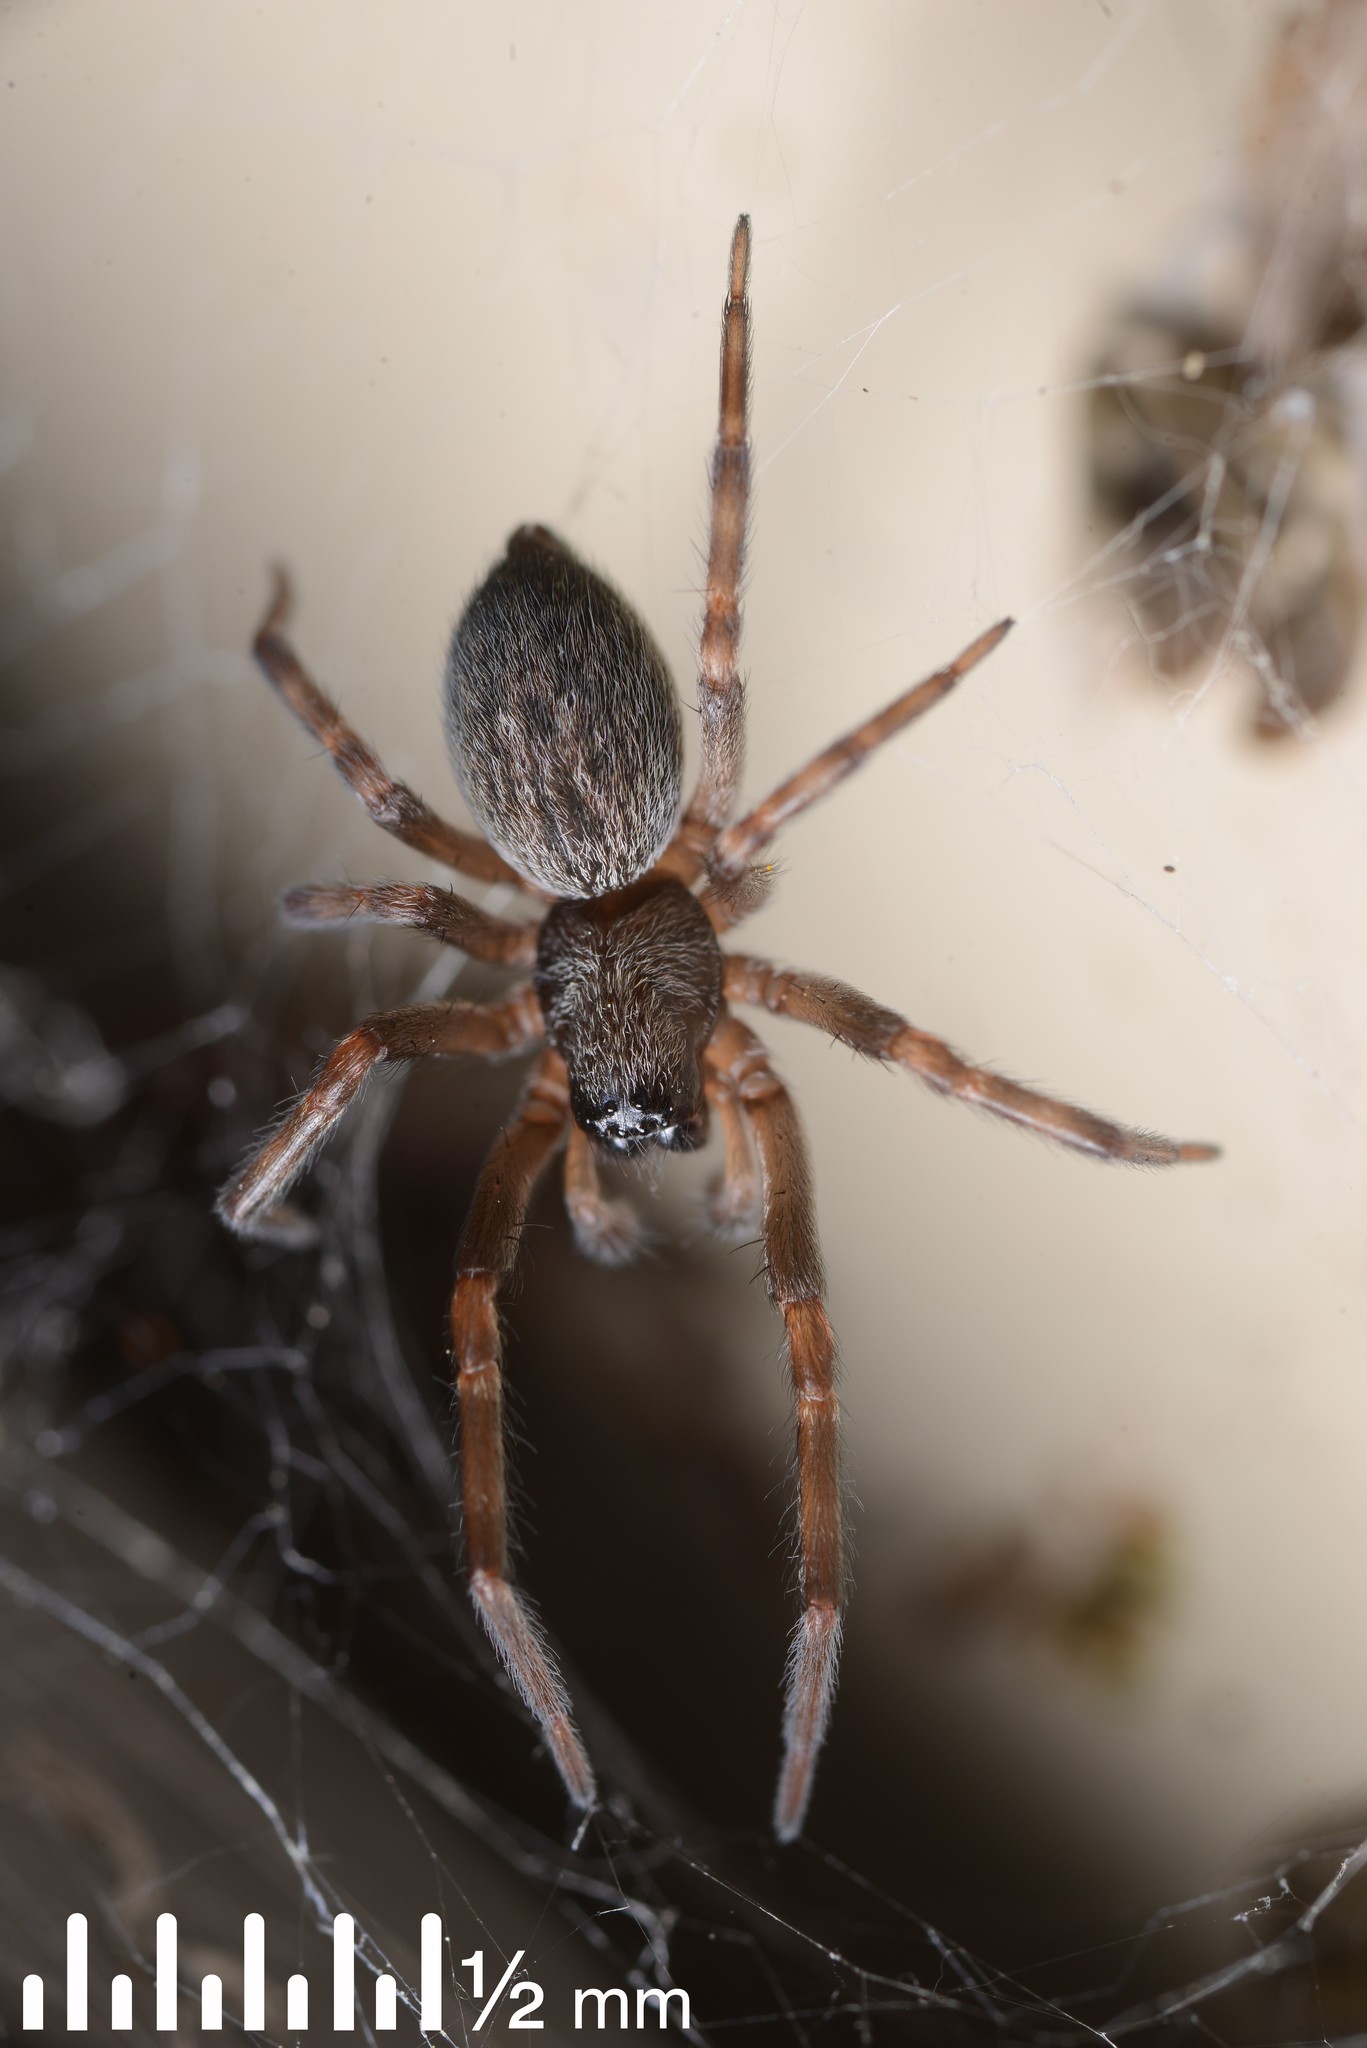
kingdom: Animalia
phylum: Arthropoda
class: Arachnida
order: Araneae
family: Desidae
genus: Badumna
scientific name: Badumna
